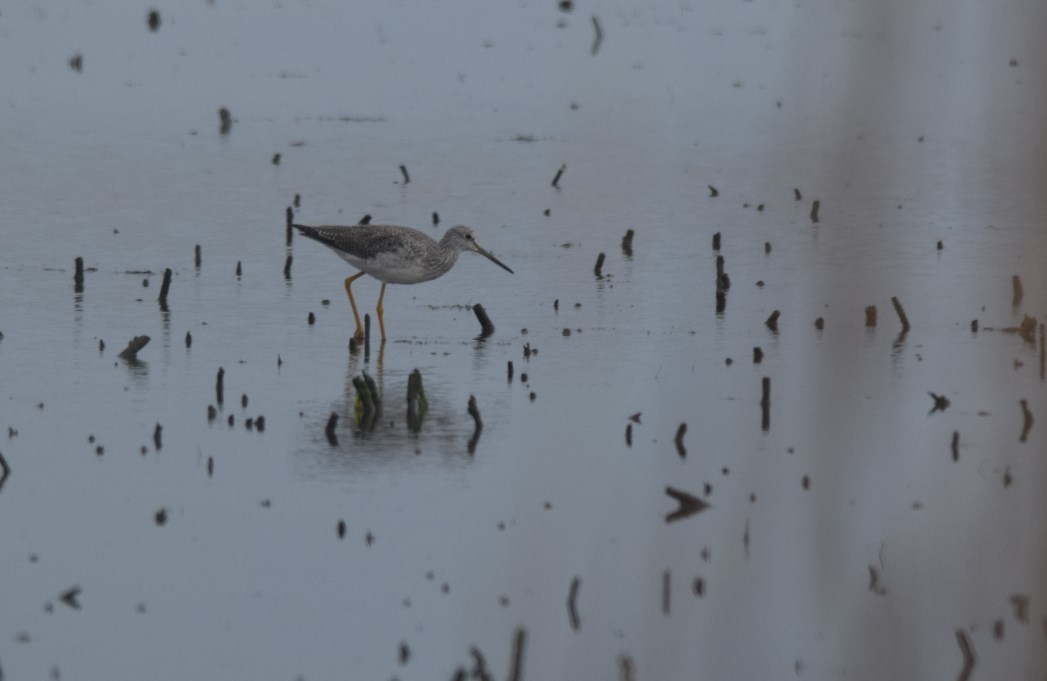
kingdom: Animalia
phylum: Chordata
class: Aves
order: Charadriiformes
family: Scolopacidae
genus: Tringa
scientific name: Tringa melanoleuca
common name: Greater yellowlegs
